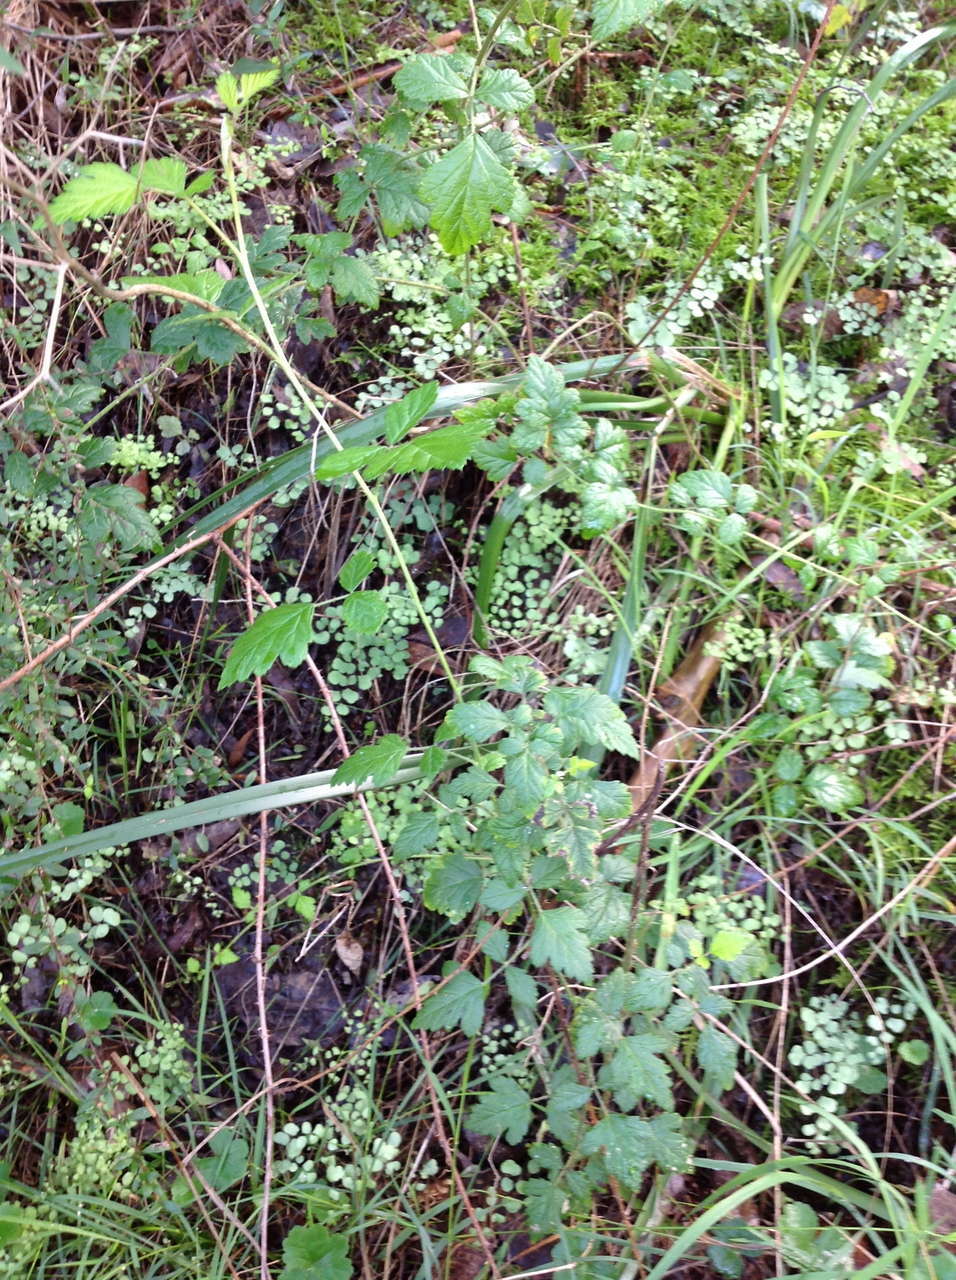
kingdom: Plantae
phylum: Tracheophyta
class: Magnoliopsida
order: Rosales
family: Rosaceae
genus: Rubus
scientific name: Rubus parvifolius
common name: Threeleaf blackberry
